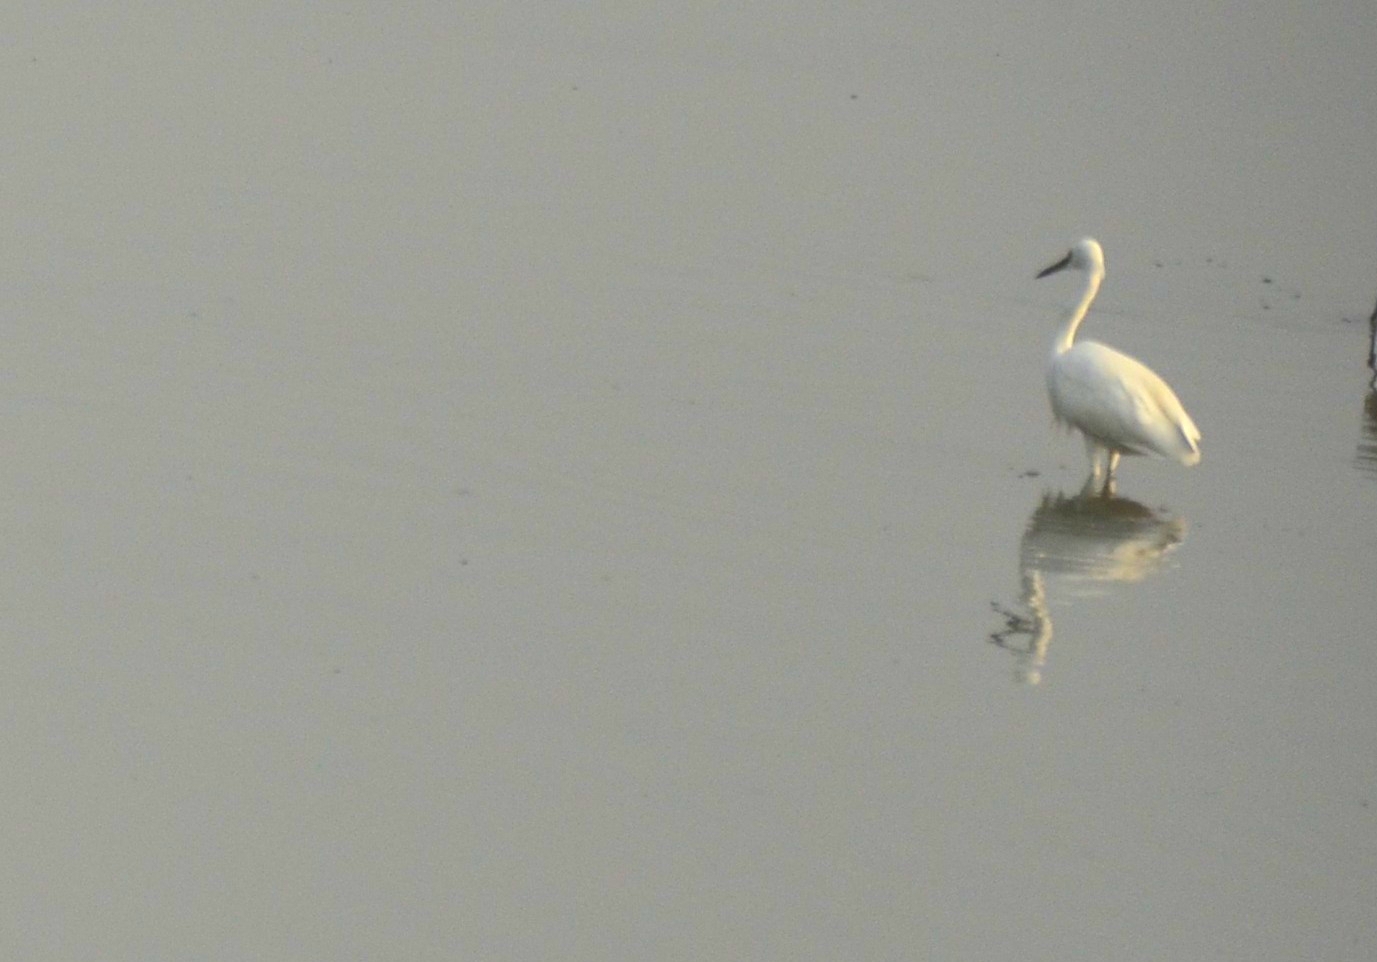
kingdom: Animalia
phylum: Chordata
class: Aves
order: Pelecaniformes
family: Ardeidae
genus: Egretta
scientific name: Egretta garzetta
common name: Little egret
